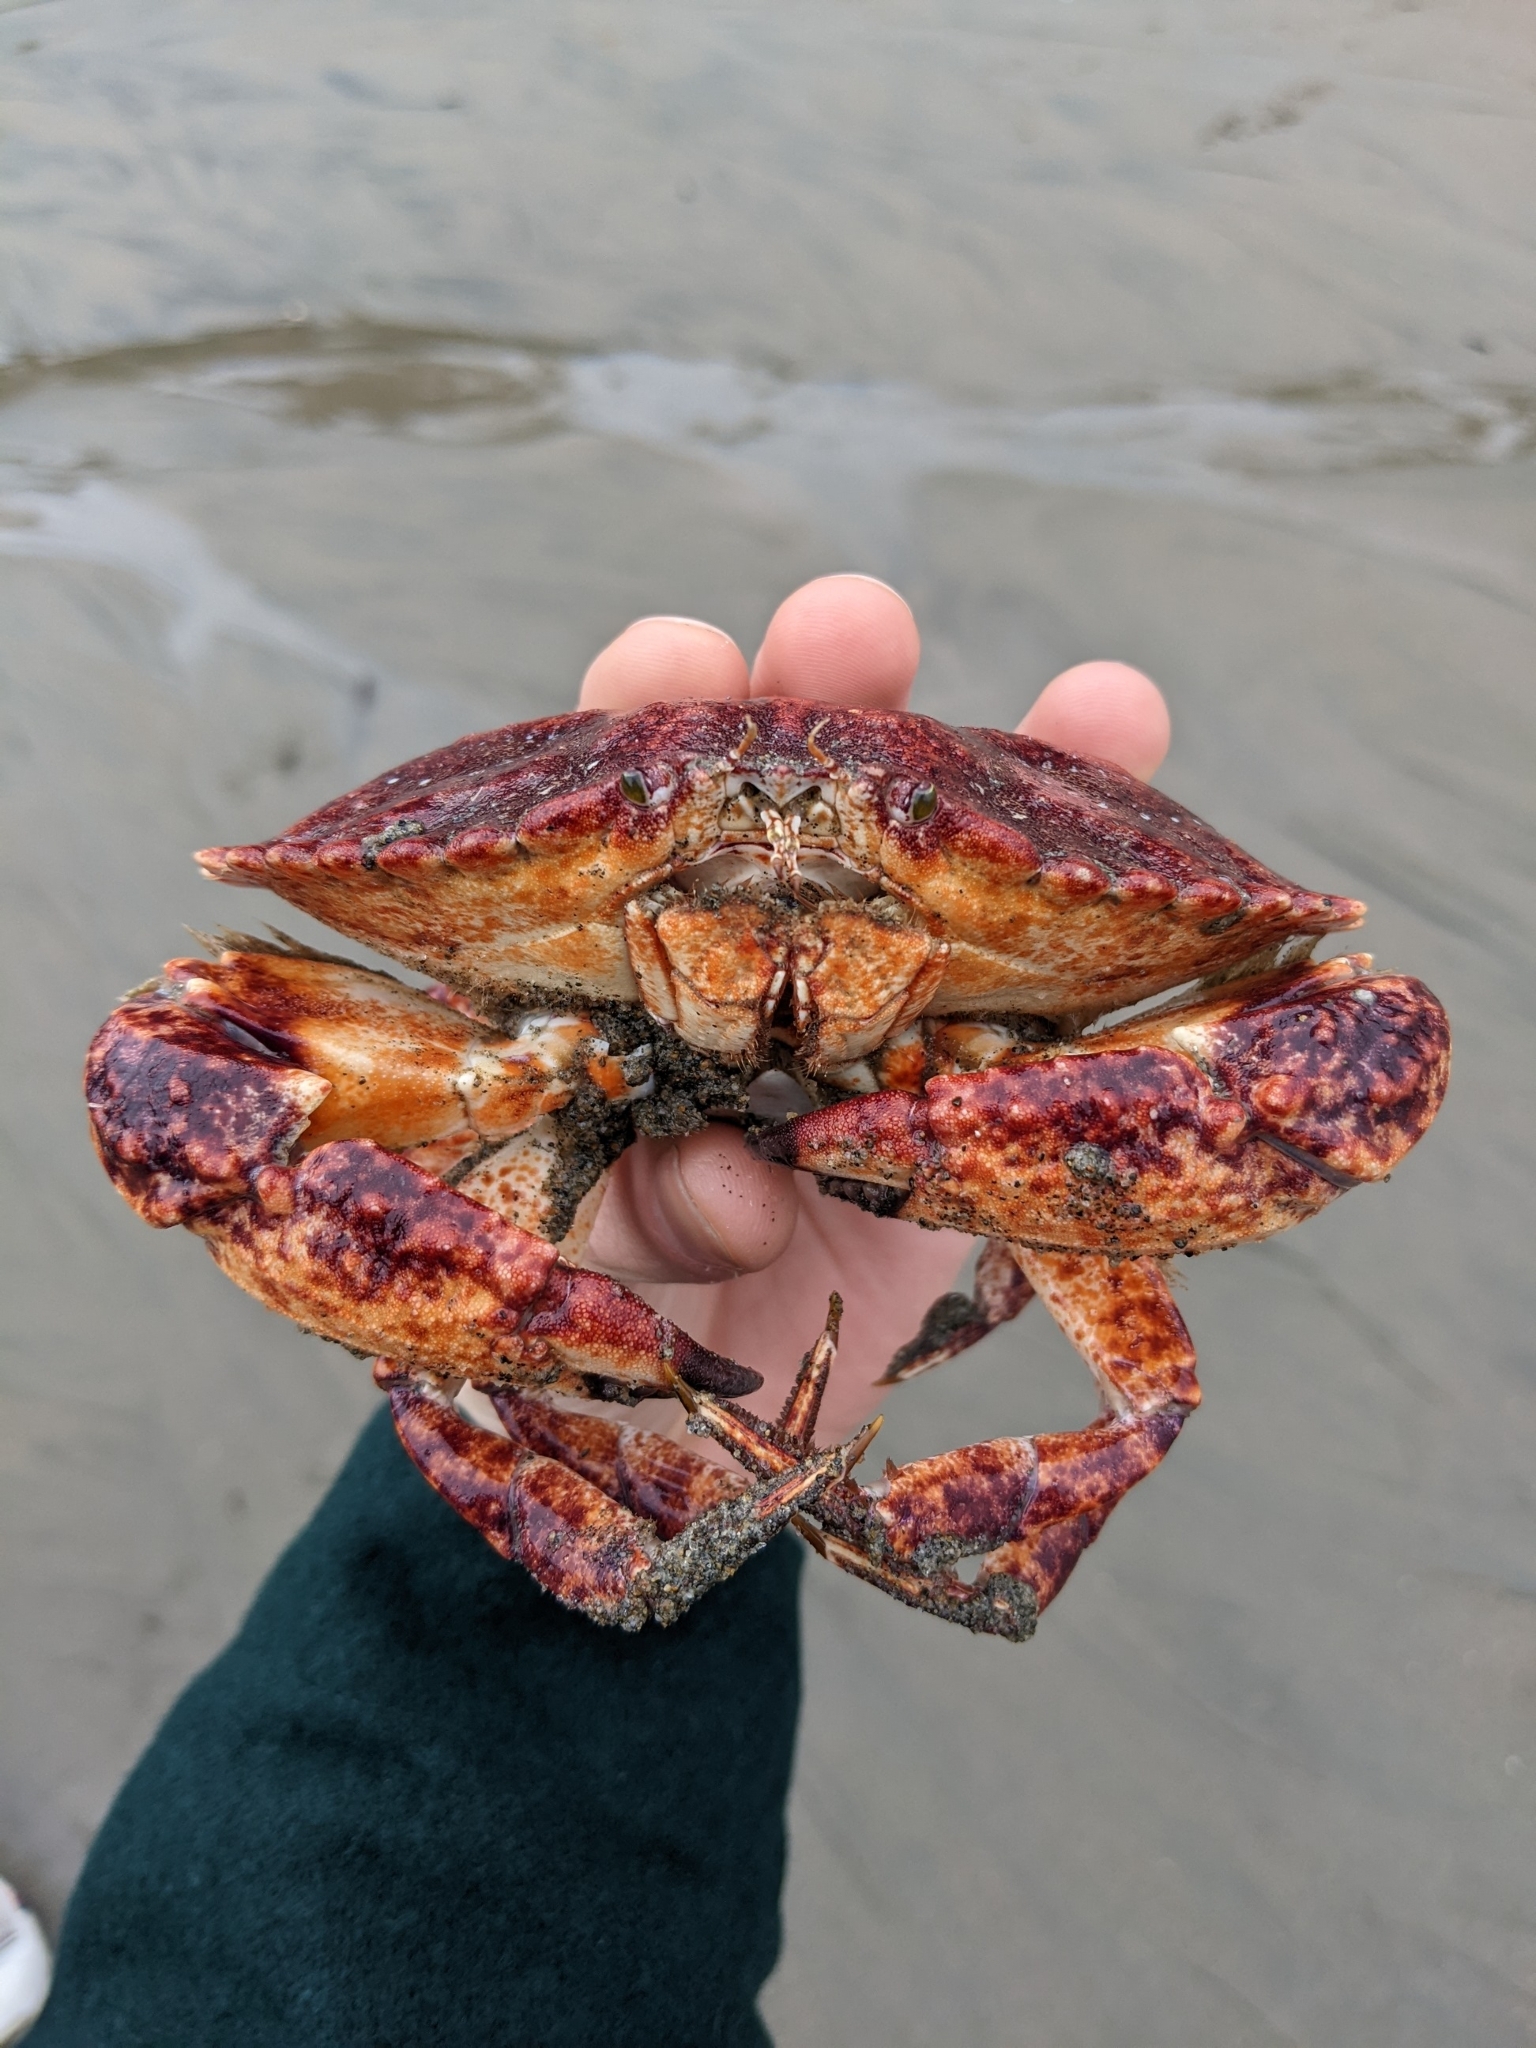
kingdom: Animalia
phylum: Arthropoda
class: Malacostraca
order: Decapoda
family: Cancridae
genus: Cancer
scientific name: Cancer productus
